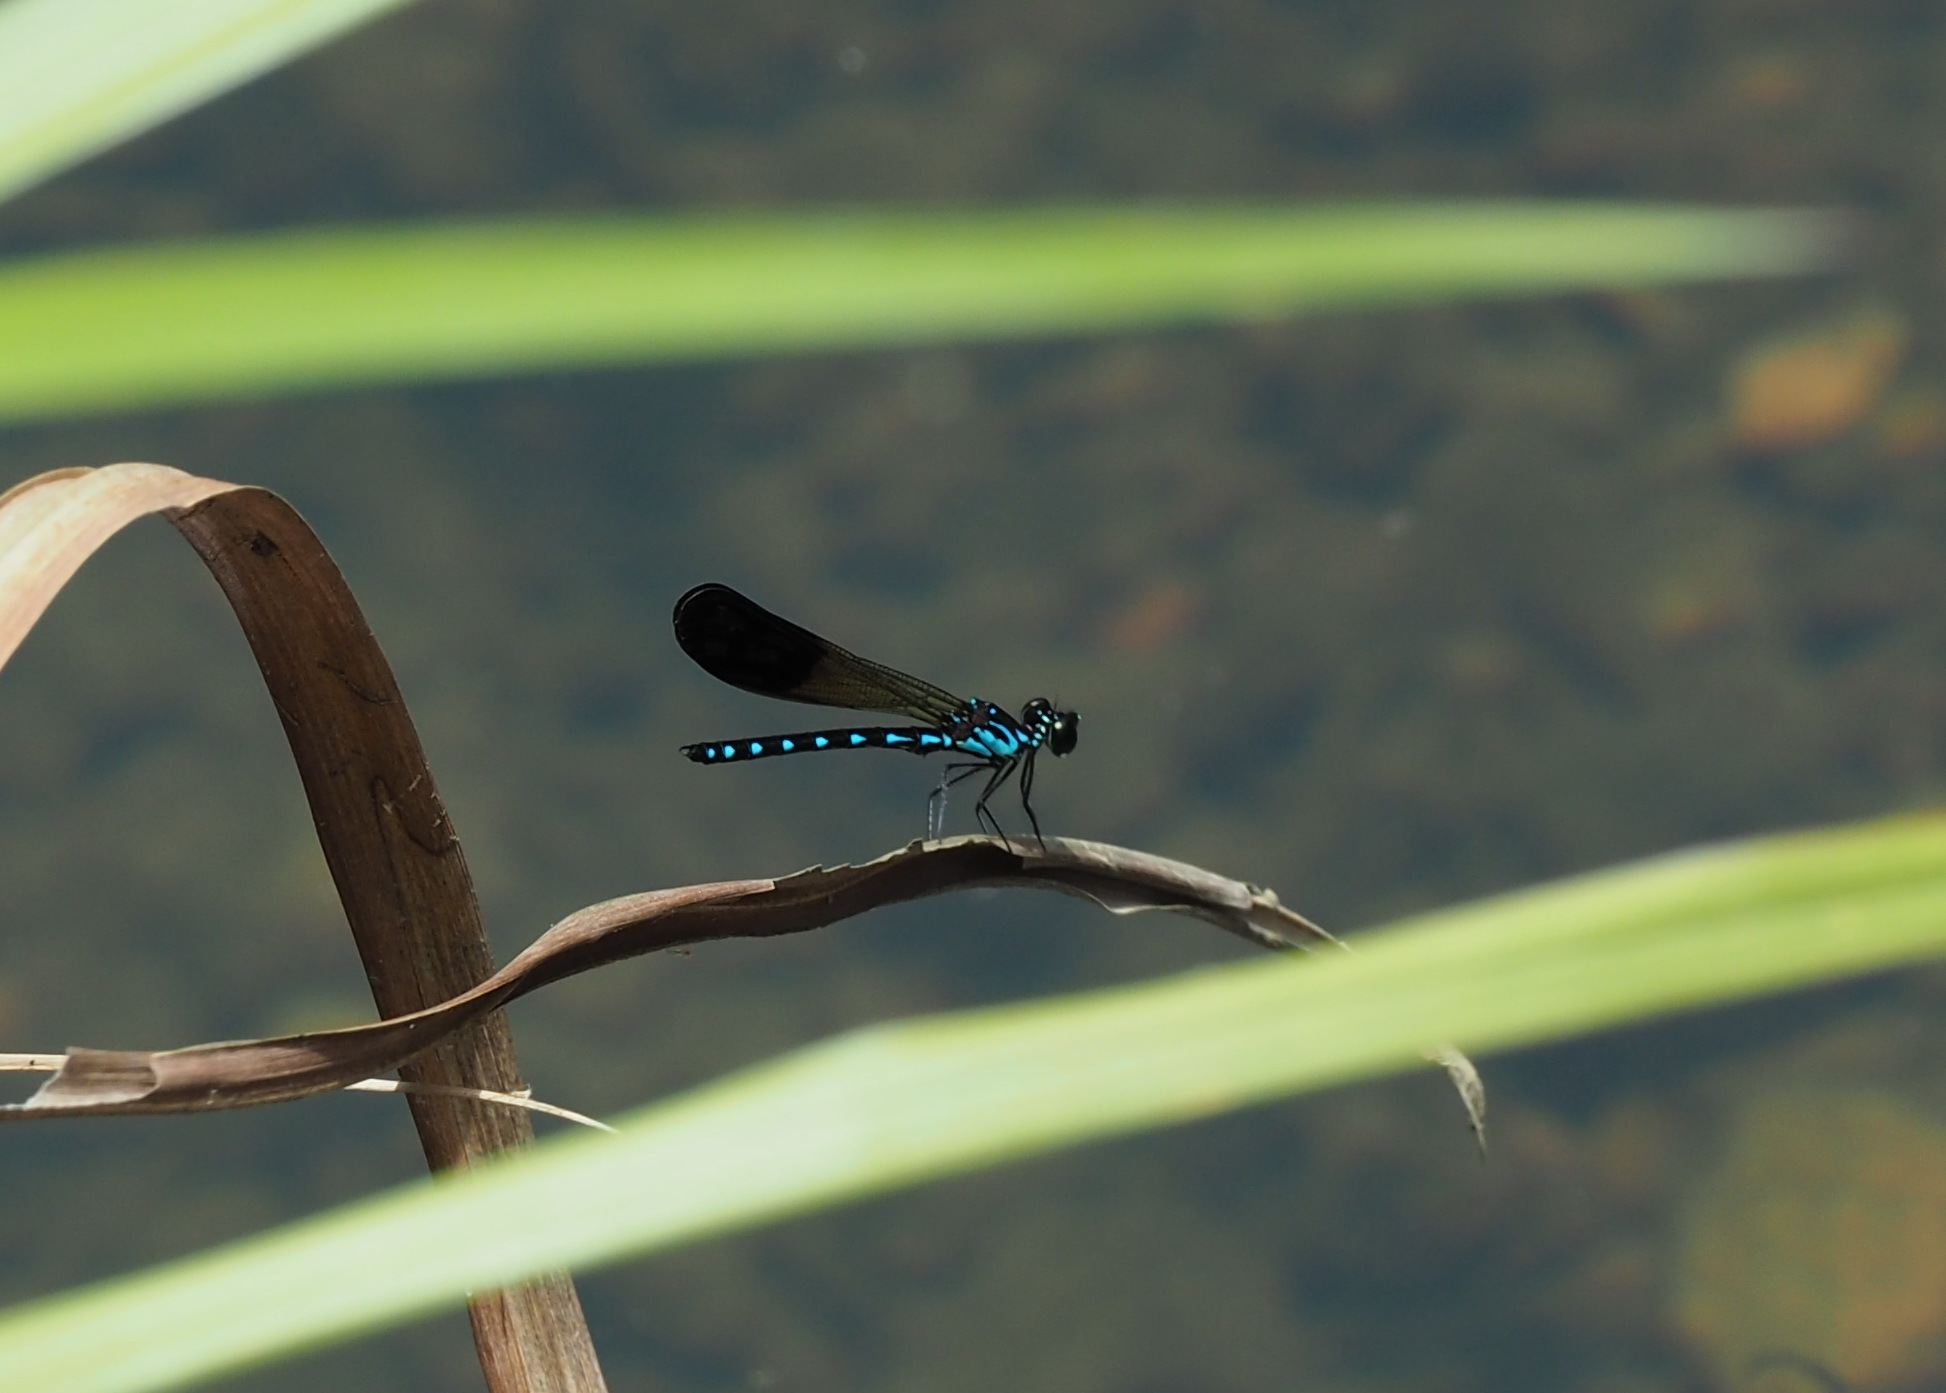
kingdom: Animalia
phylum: Arthropoda
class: Insecta
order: Odonata
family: Chlorocyphidae
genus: Heliocypha
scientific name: Heliocypha perforata
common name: Common blue jewel
